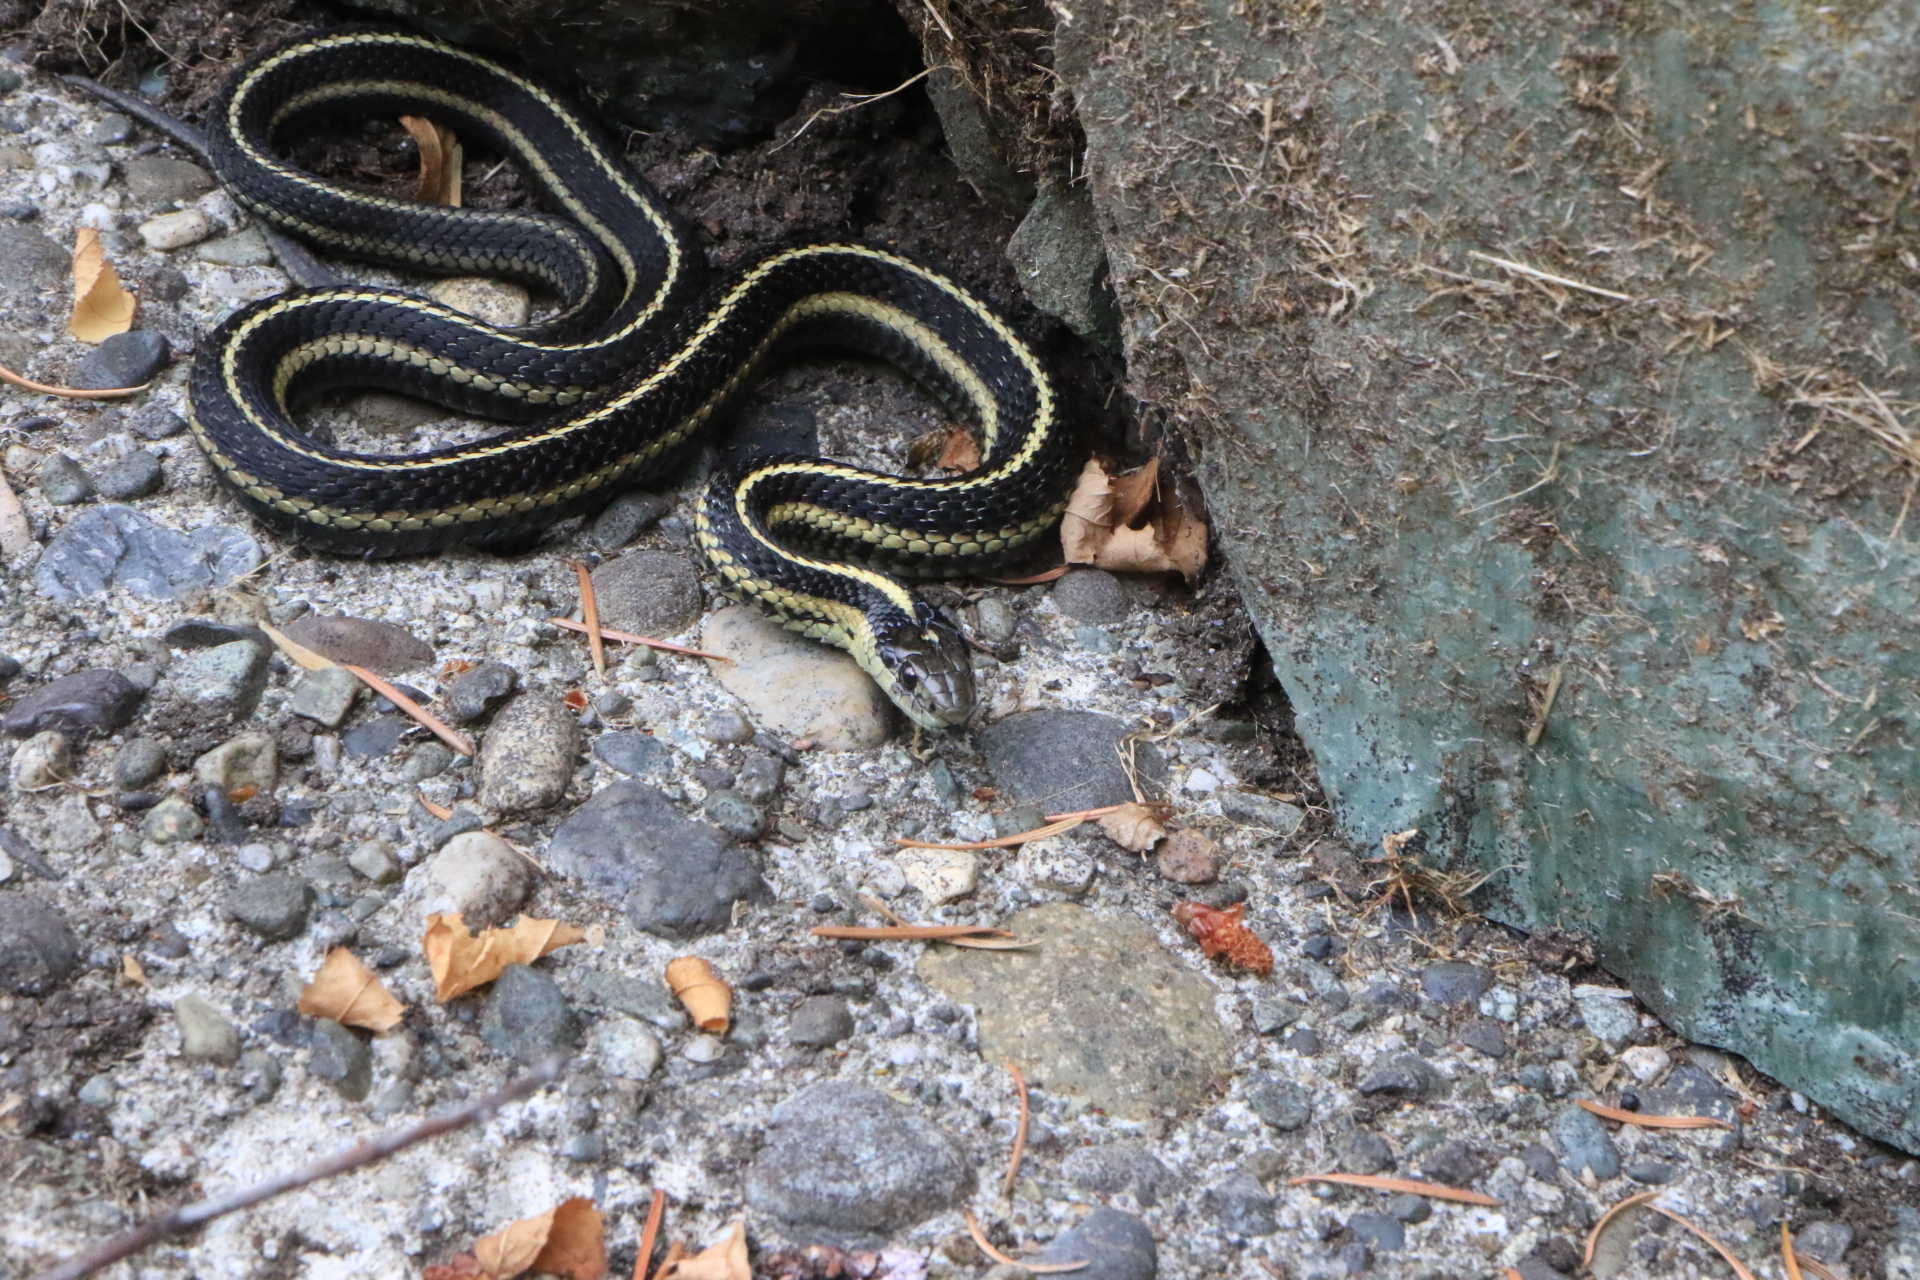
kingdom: Animalia
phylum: Chordata
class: Squamata
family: Colubridae
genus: Thamnophis
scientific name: Thamnophis ordinoides
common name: Northwestern garter snake
